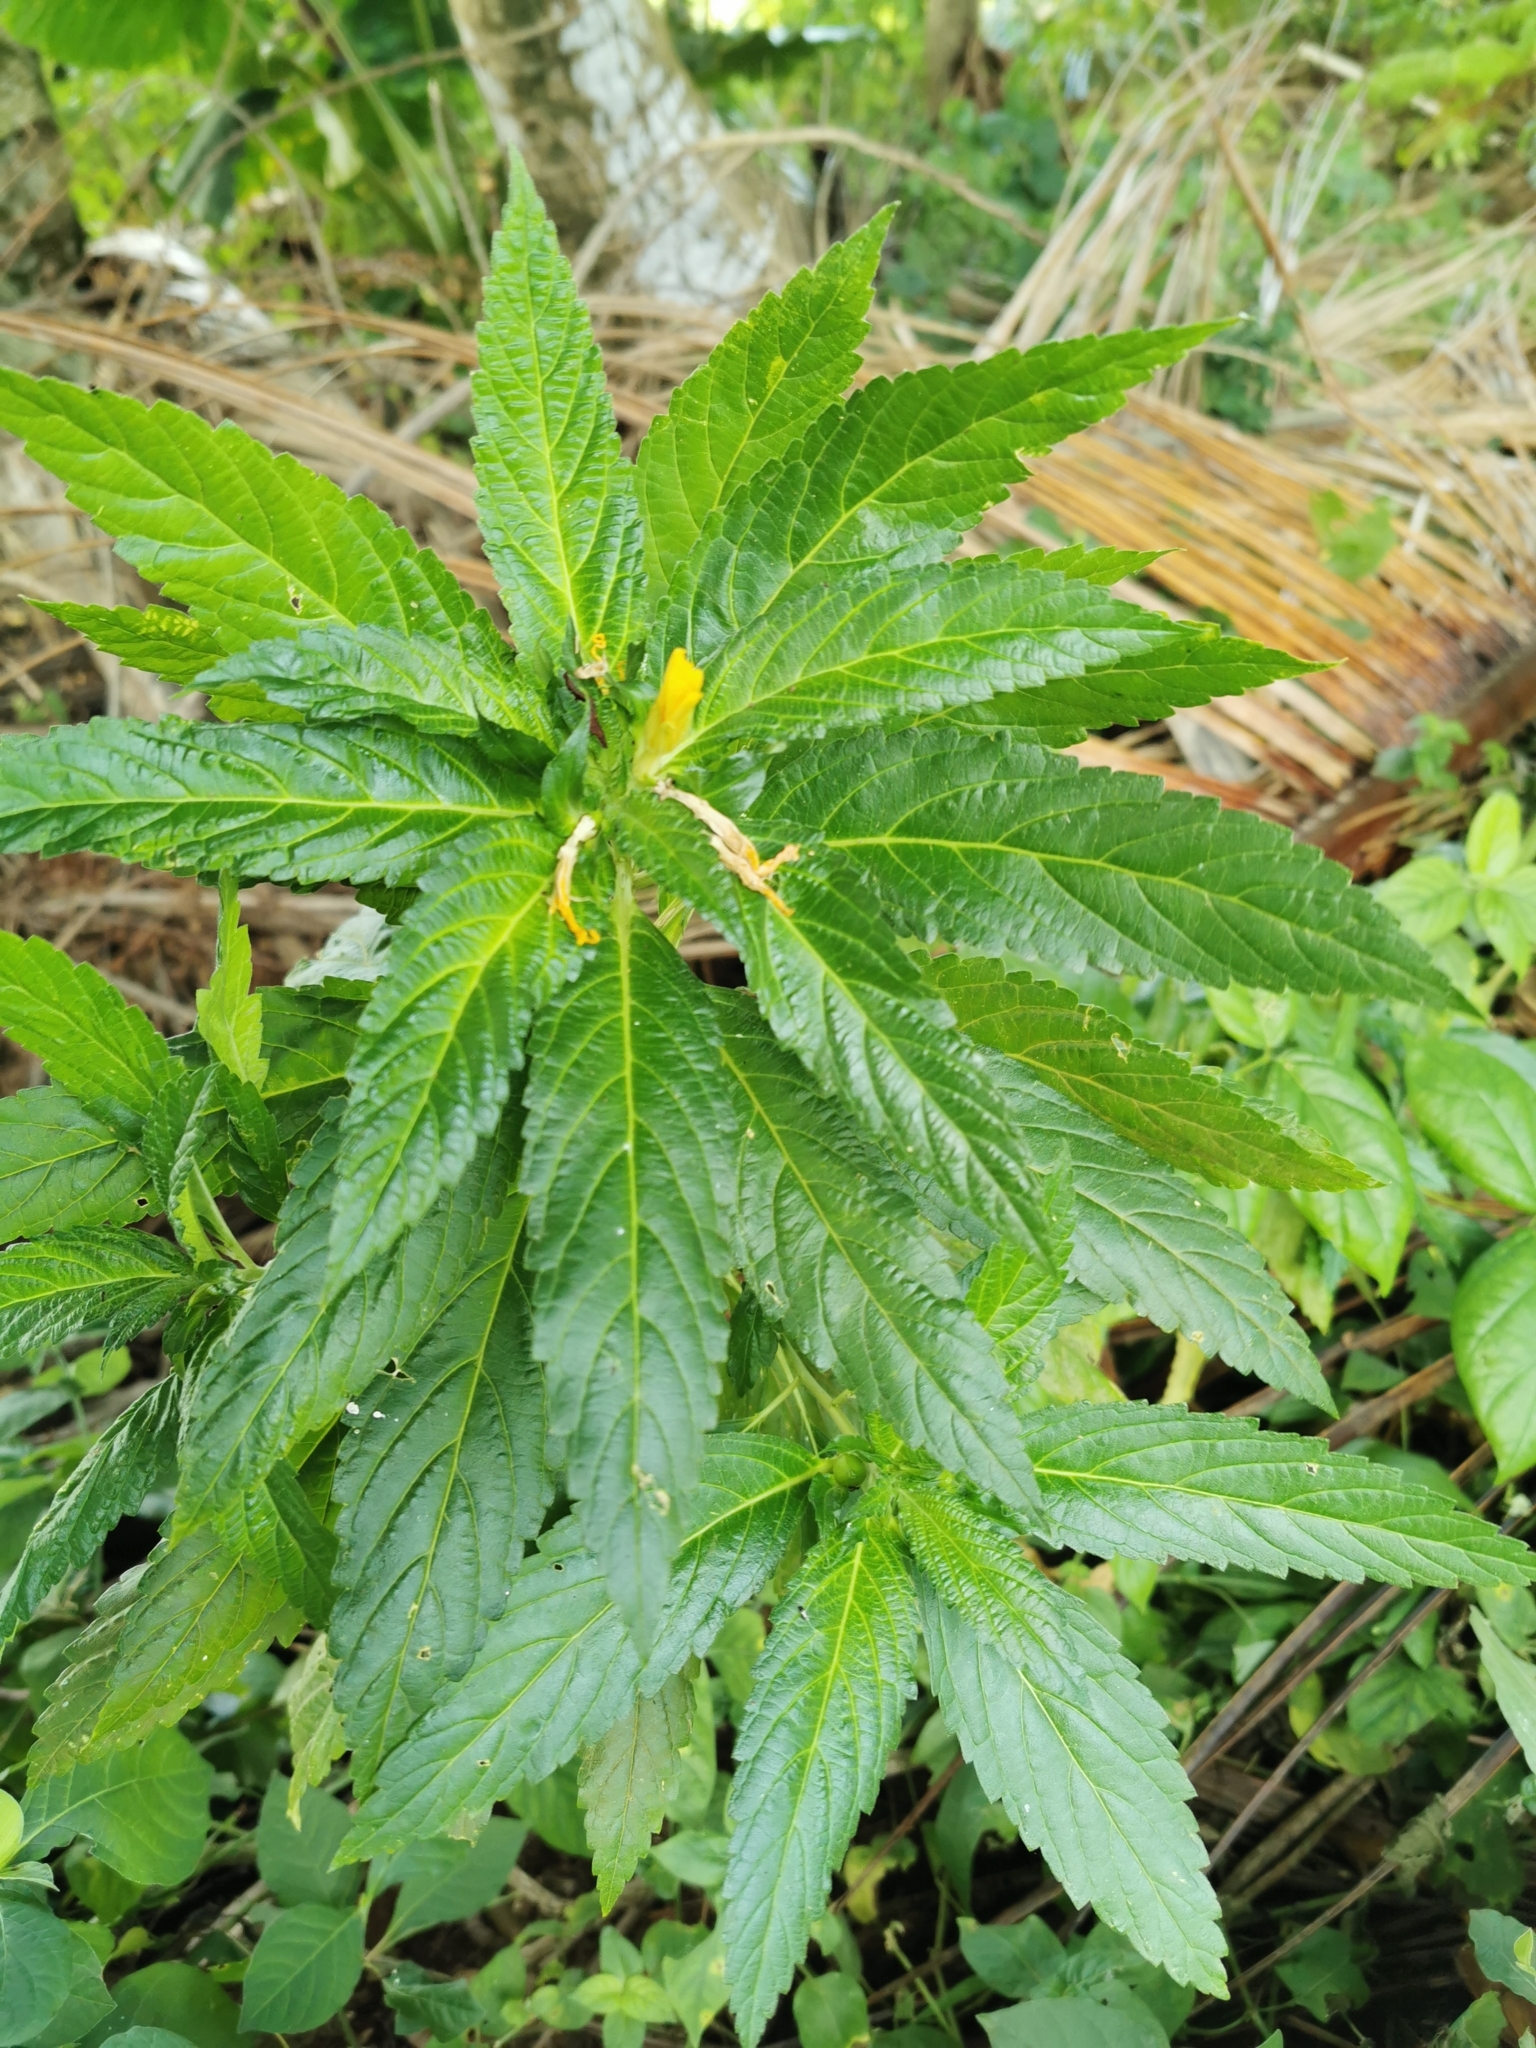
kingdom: Plantae
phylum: Tracheophyta
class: Magnoliopsida
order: Malpighiales
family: Turneraceae
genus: Turnera
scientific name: Turnera ulmifolia
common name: Ramgoat dashalong
